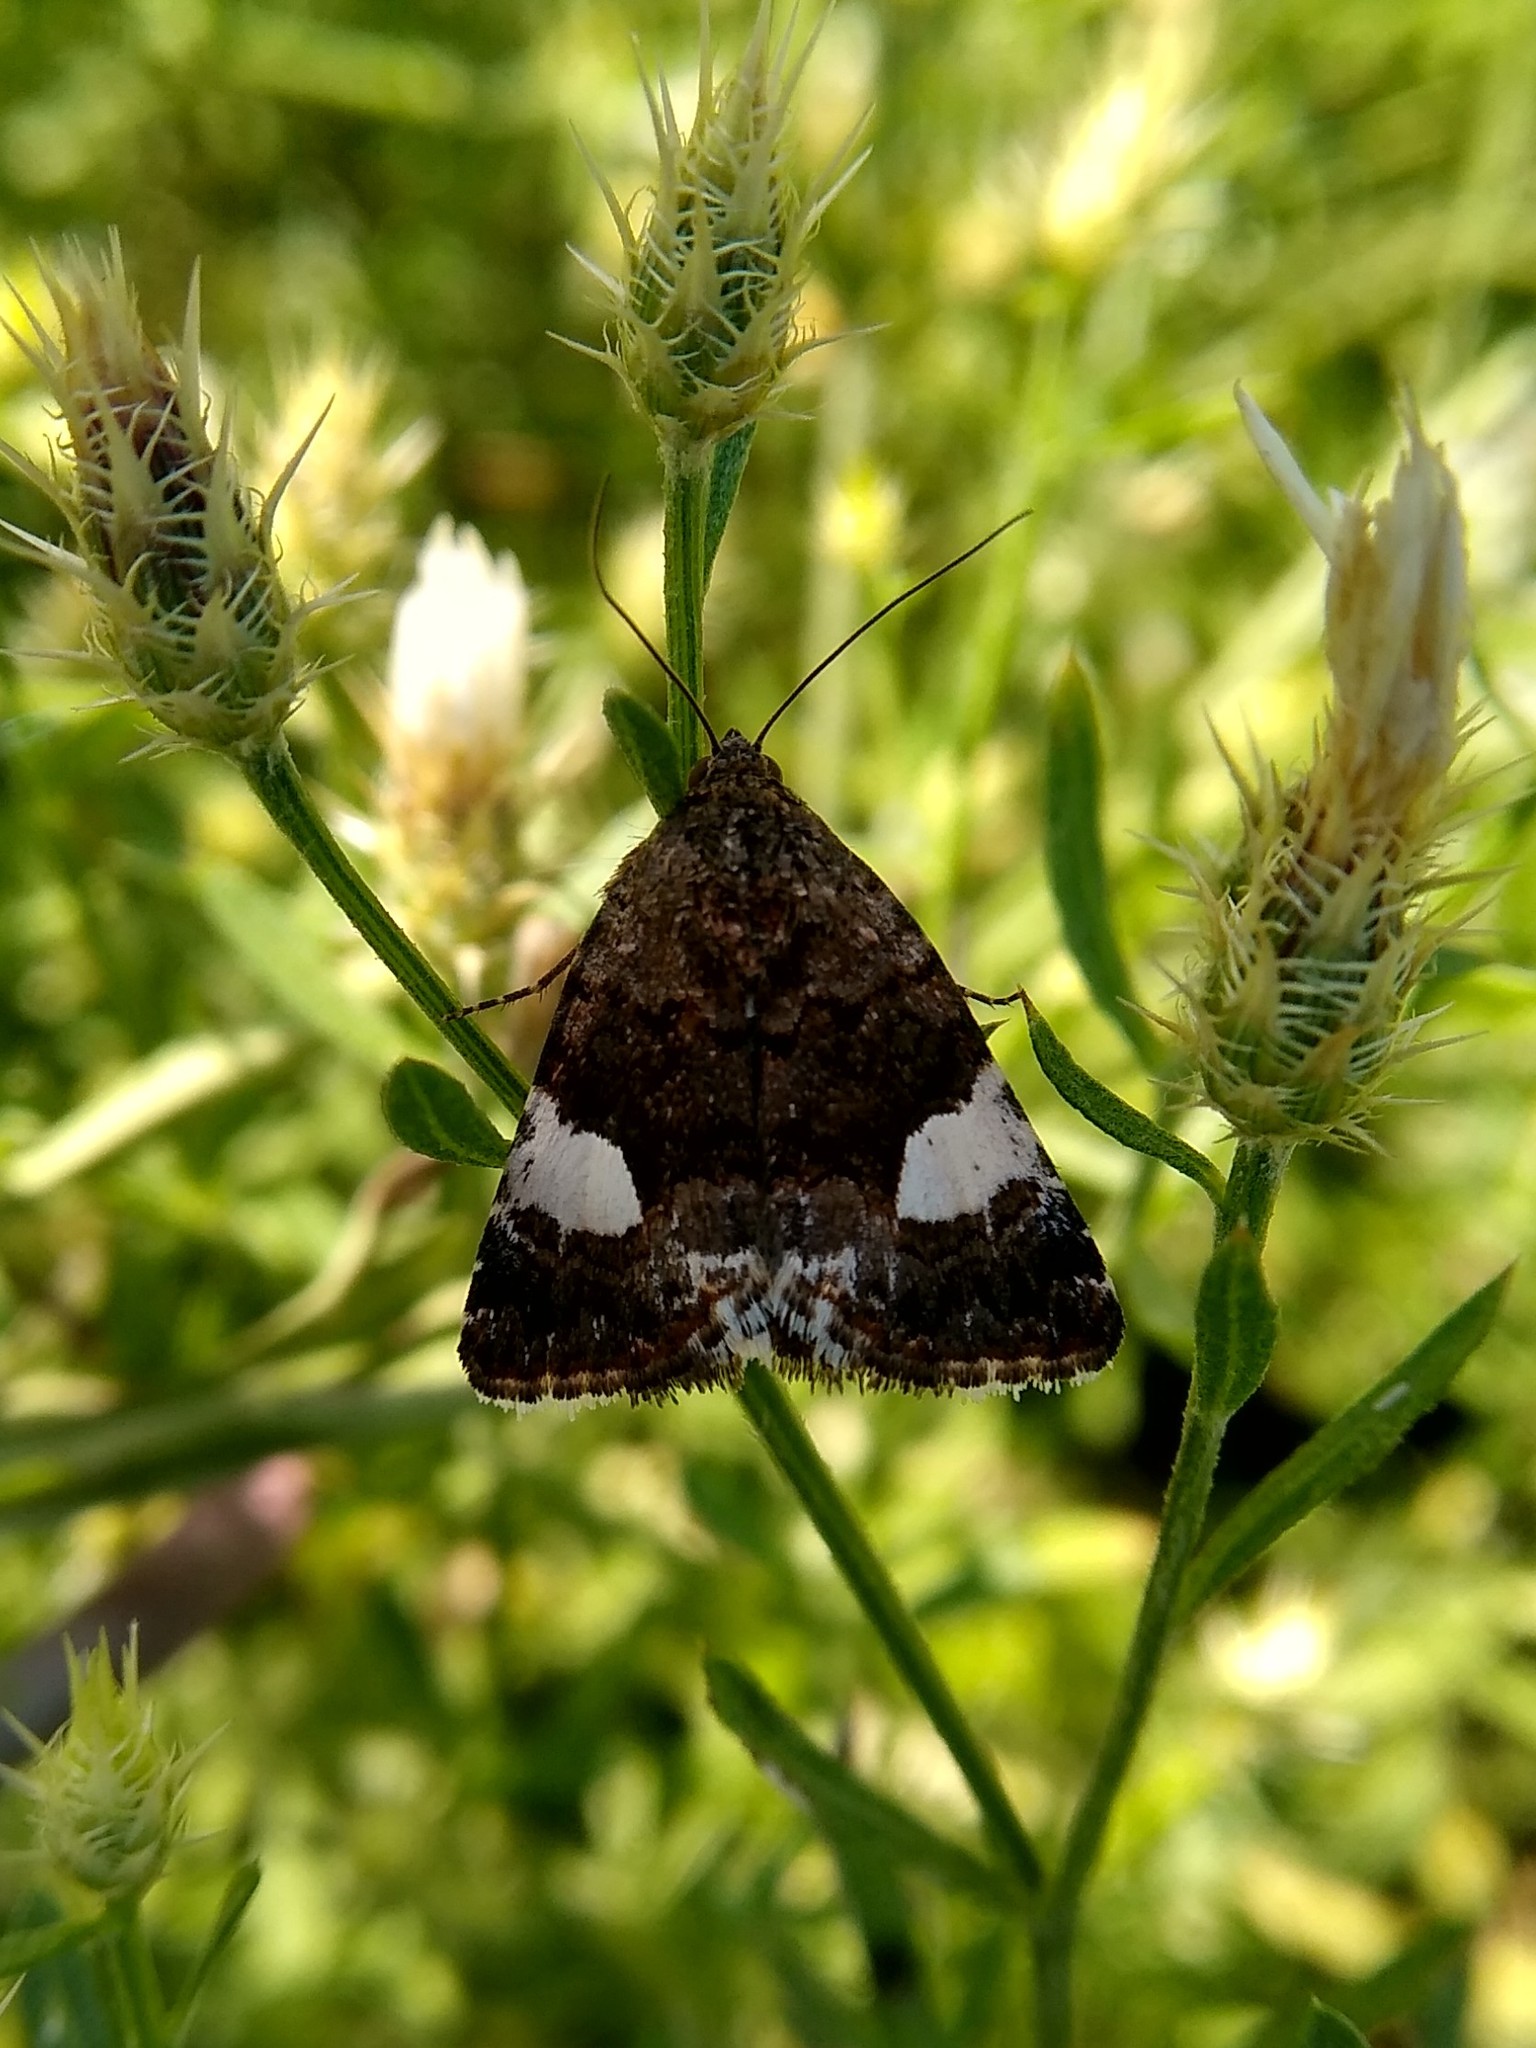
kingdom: Animalia
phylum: Arthropoda
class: Insecta
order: Lepidoptera
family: Erebidae
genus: Tyta
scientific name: Tyta luctuosa
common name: Four-spotted
